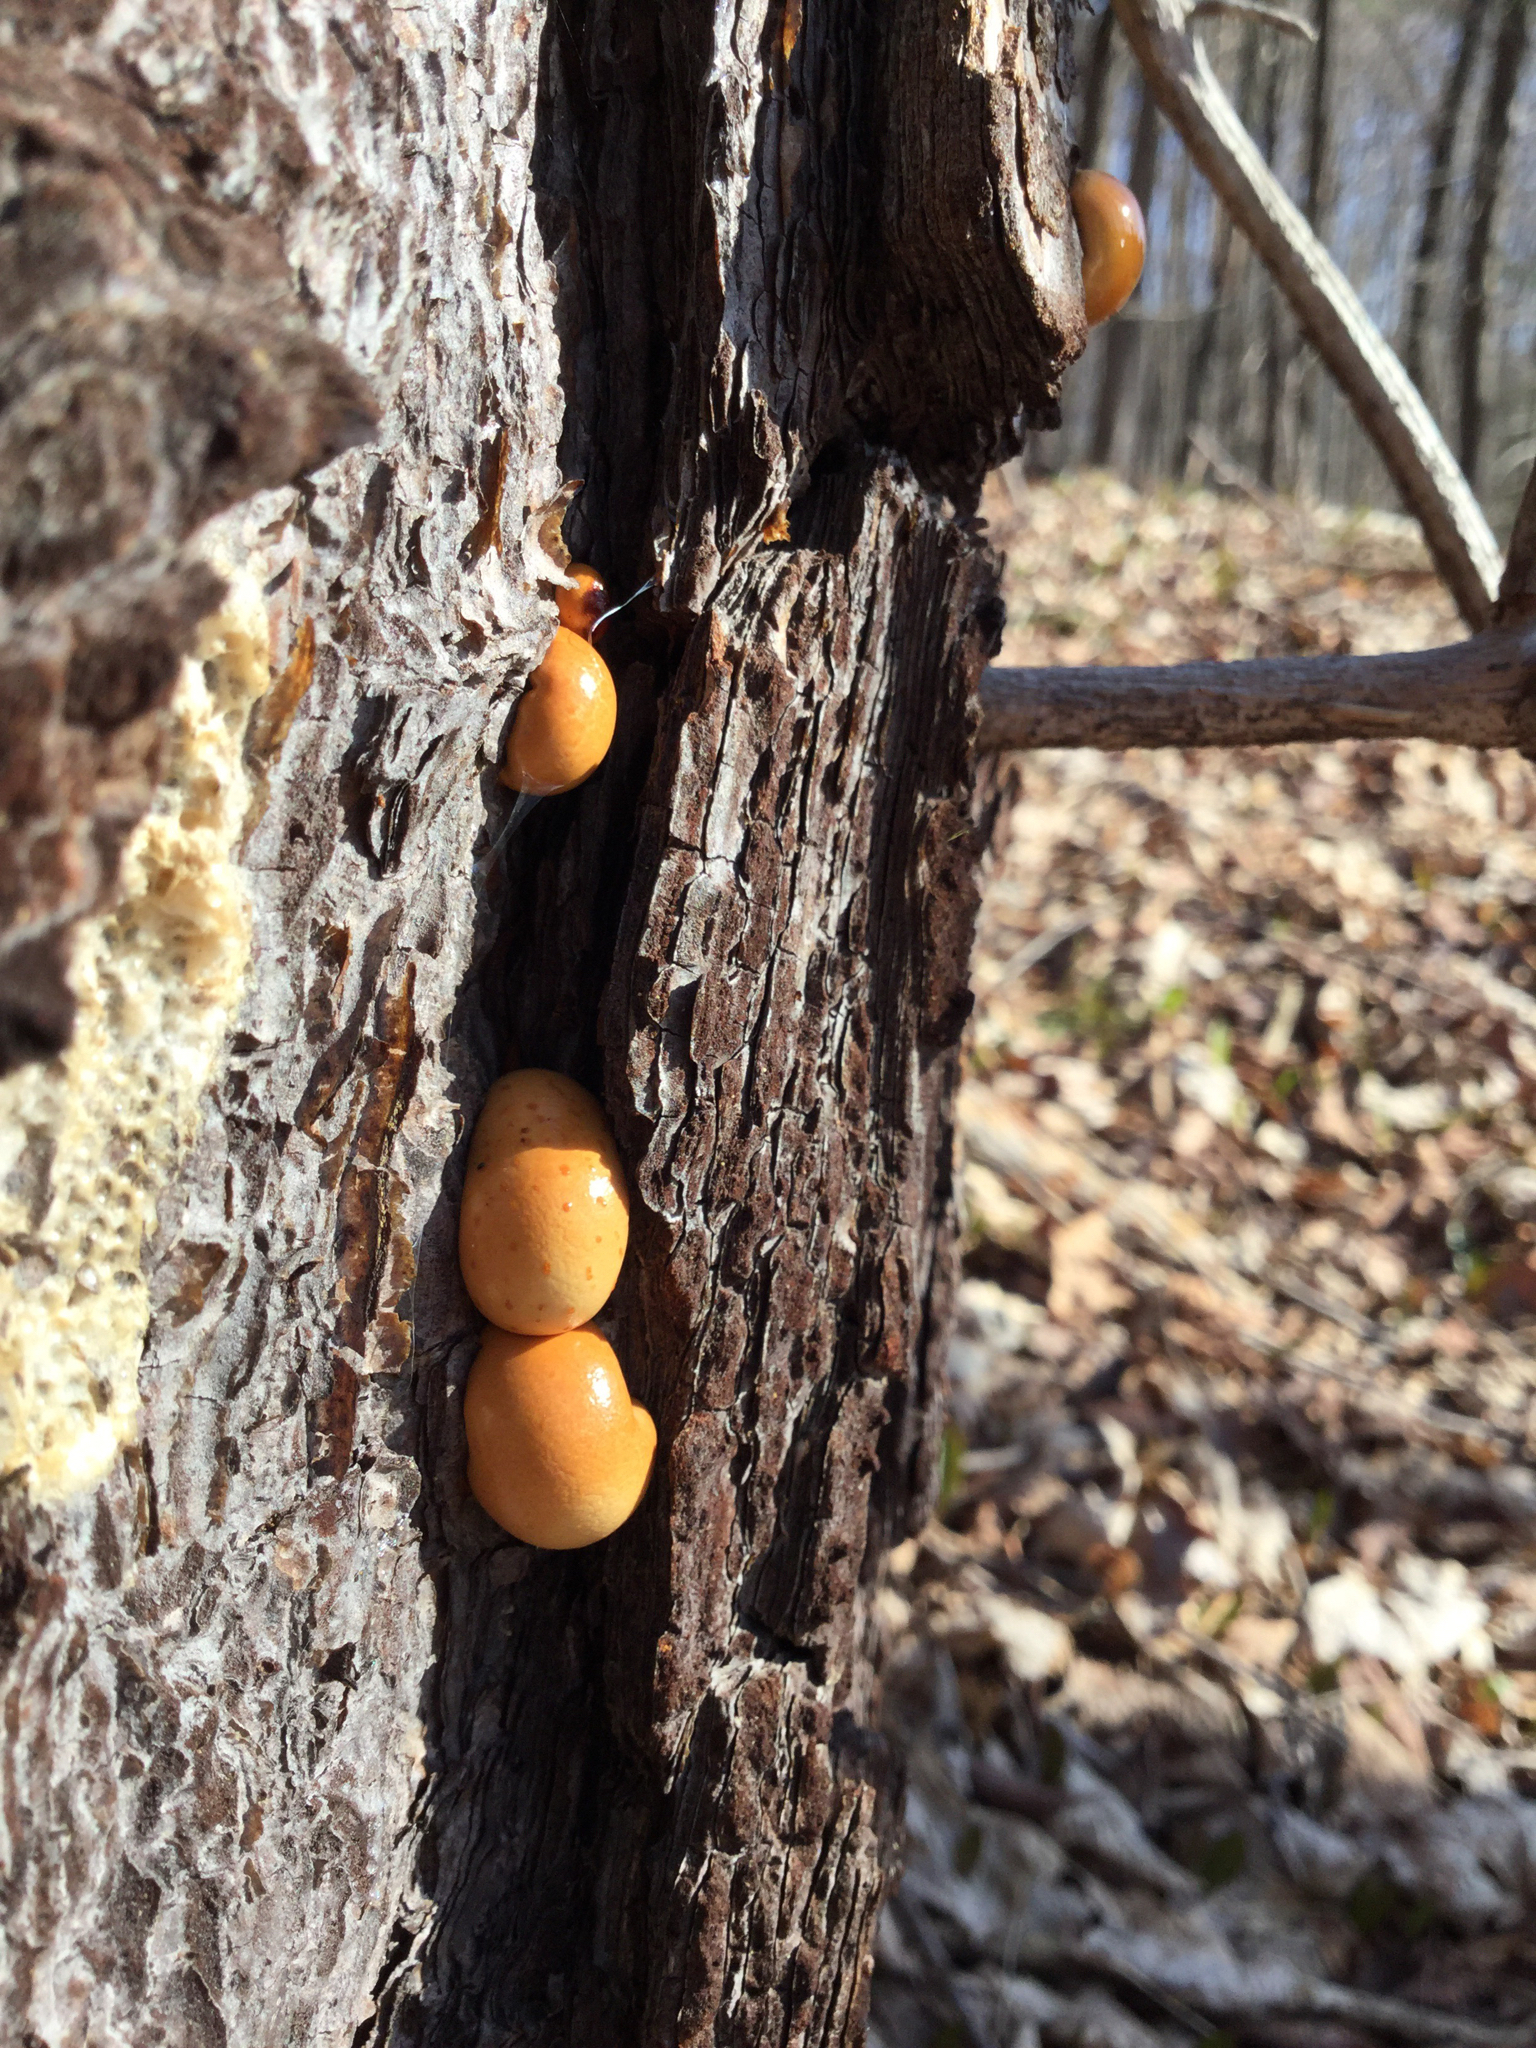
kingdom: Fungi
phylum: Basidiomycota
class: Agaricomycetes
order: Polyporales
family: Polyporaceae
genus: Cryptoporus
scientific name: Cryptoporus volvatus
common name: Veiled polypore
